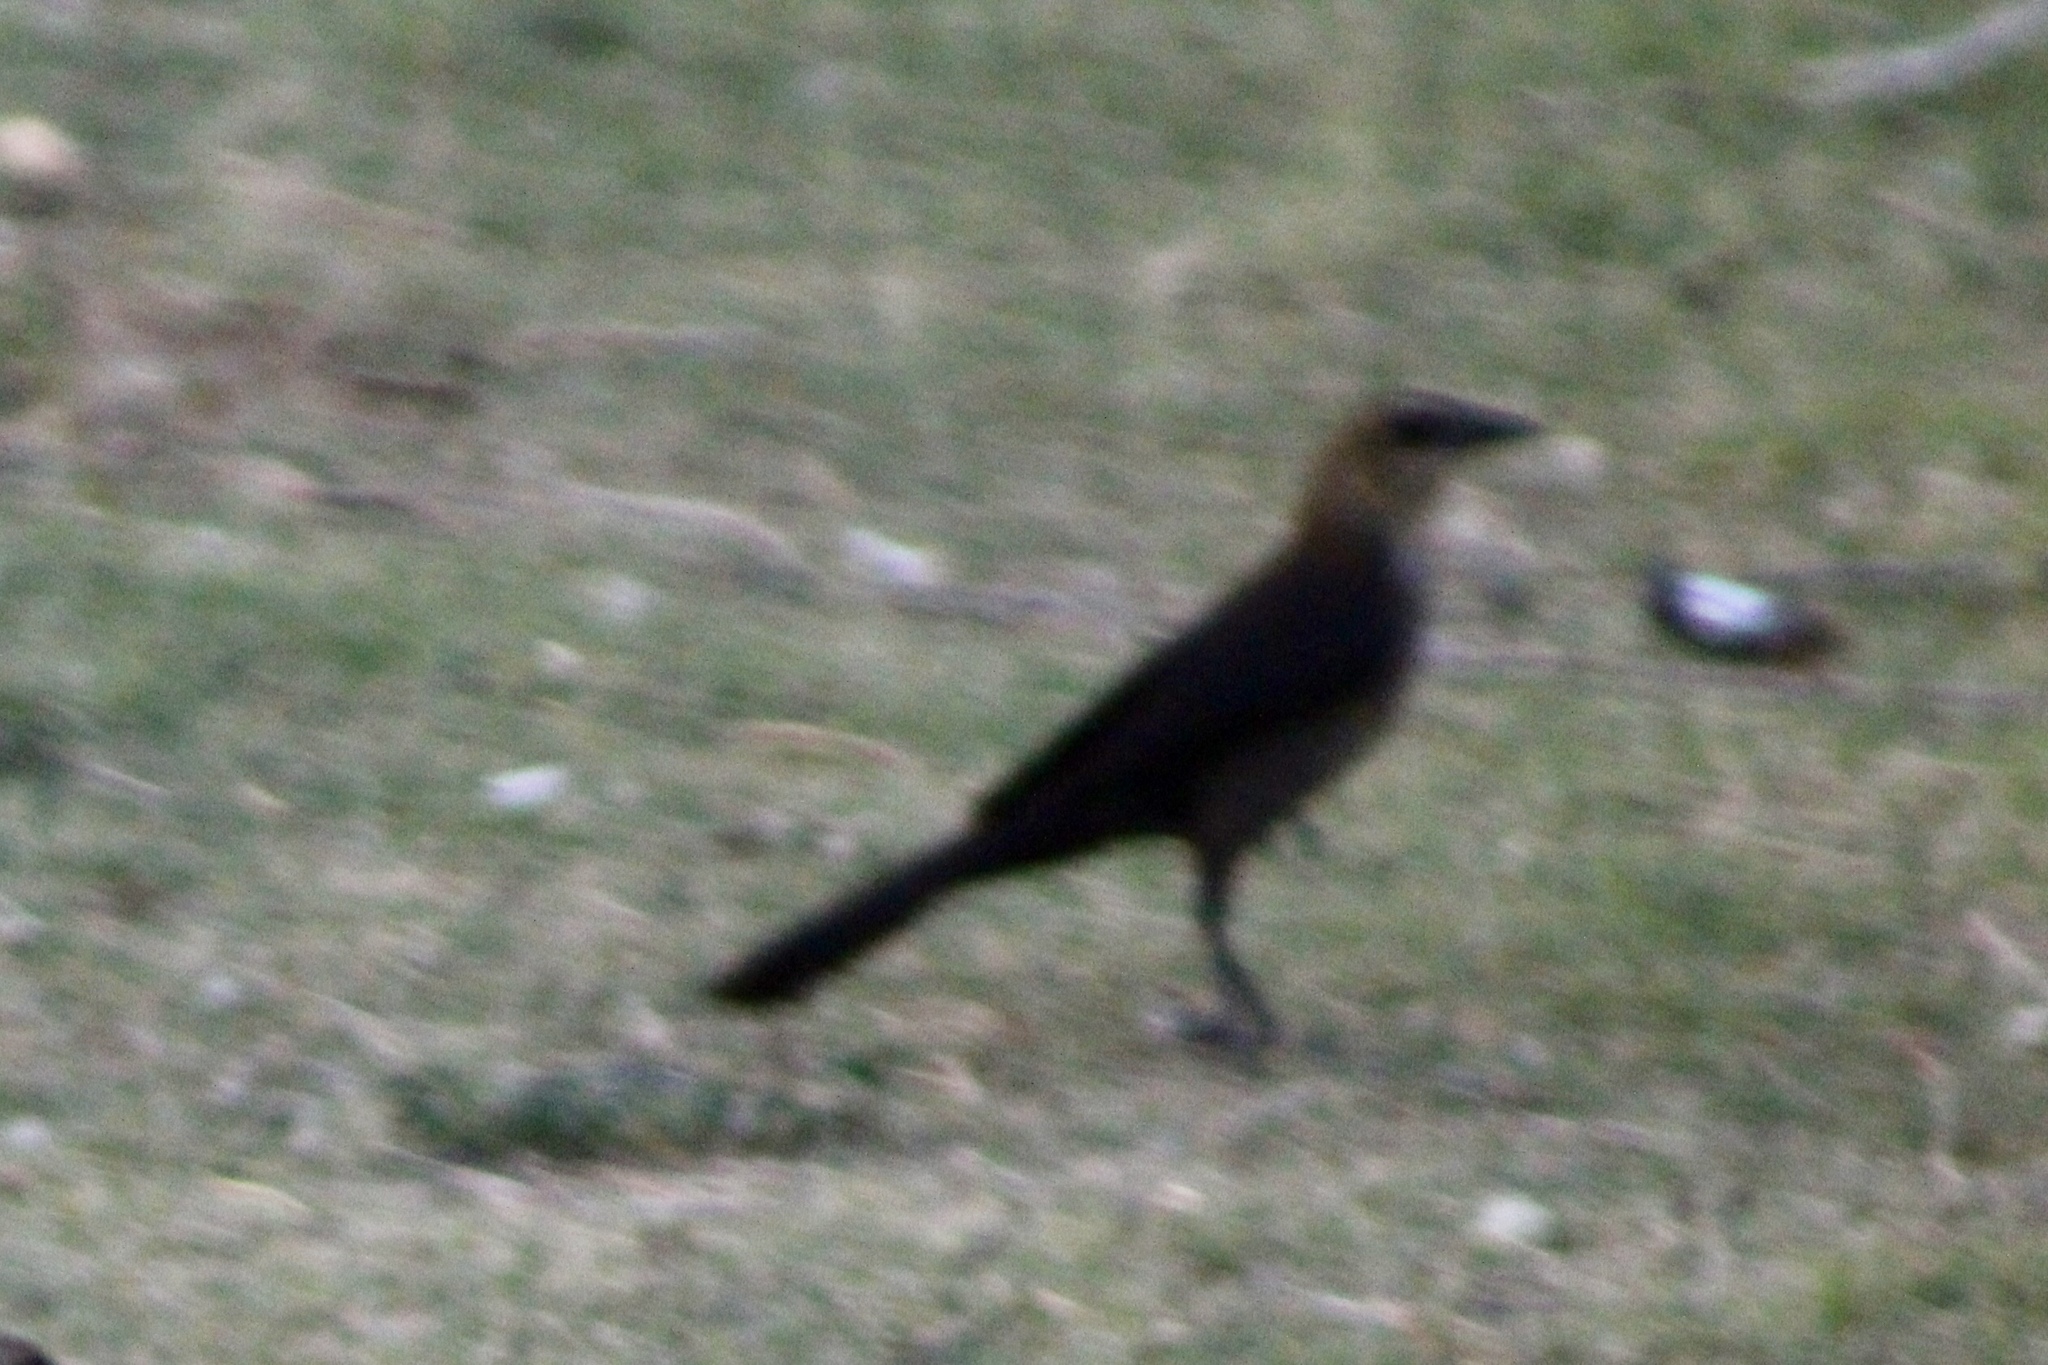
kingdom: Animalia
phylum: Chordata
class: Aves
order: Passeriformes
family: Icteridae
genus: Quiscalus
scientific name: Quiscalus mexicanus
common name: Great-tailed grackle
